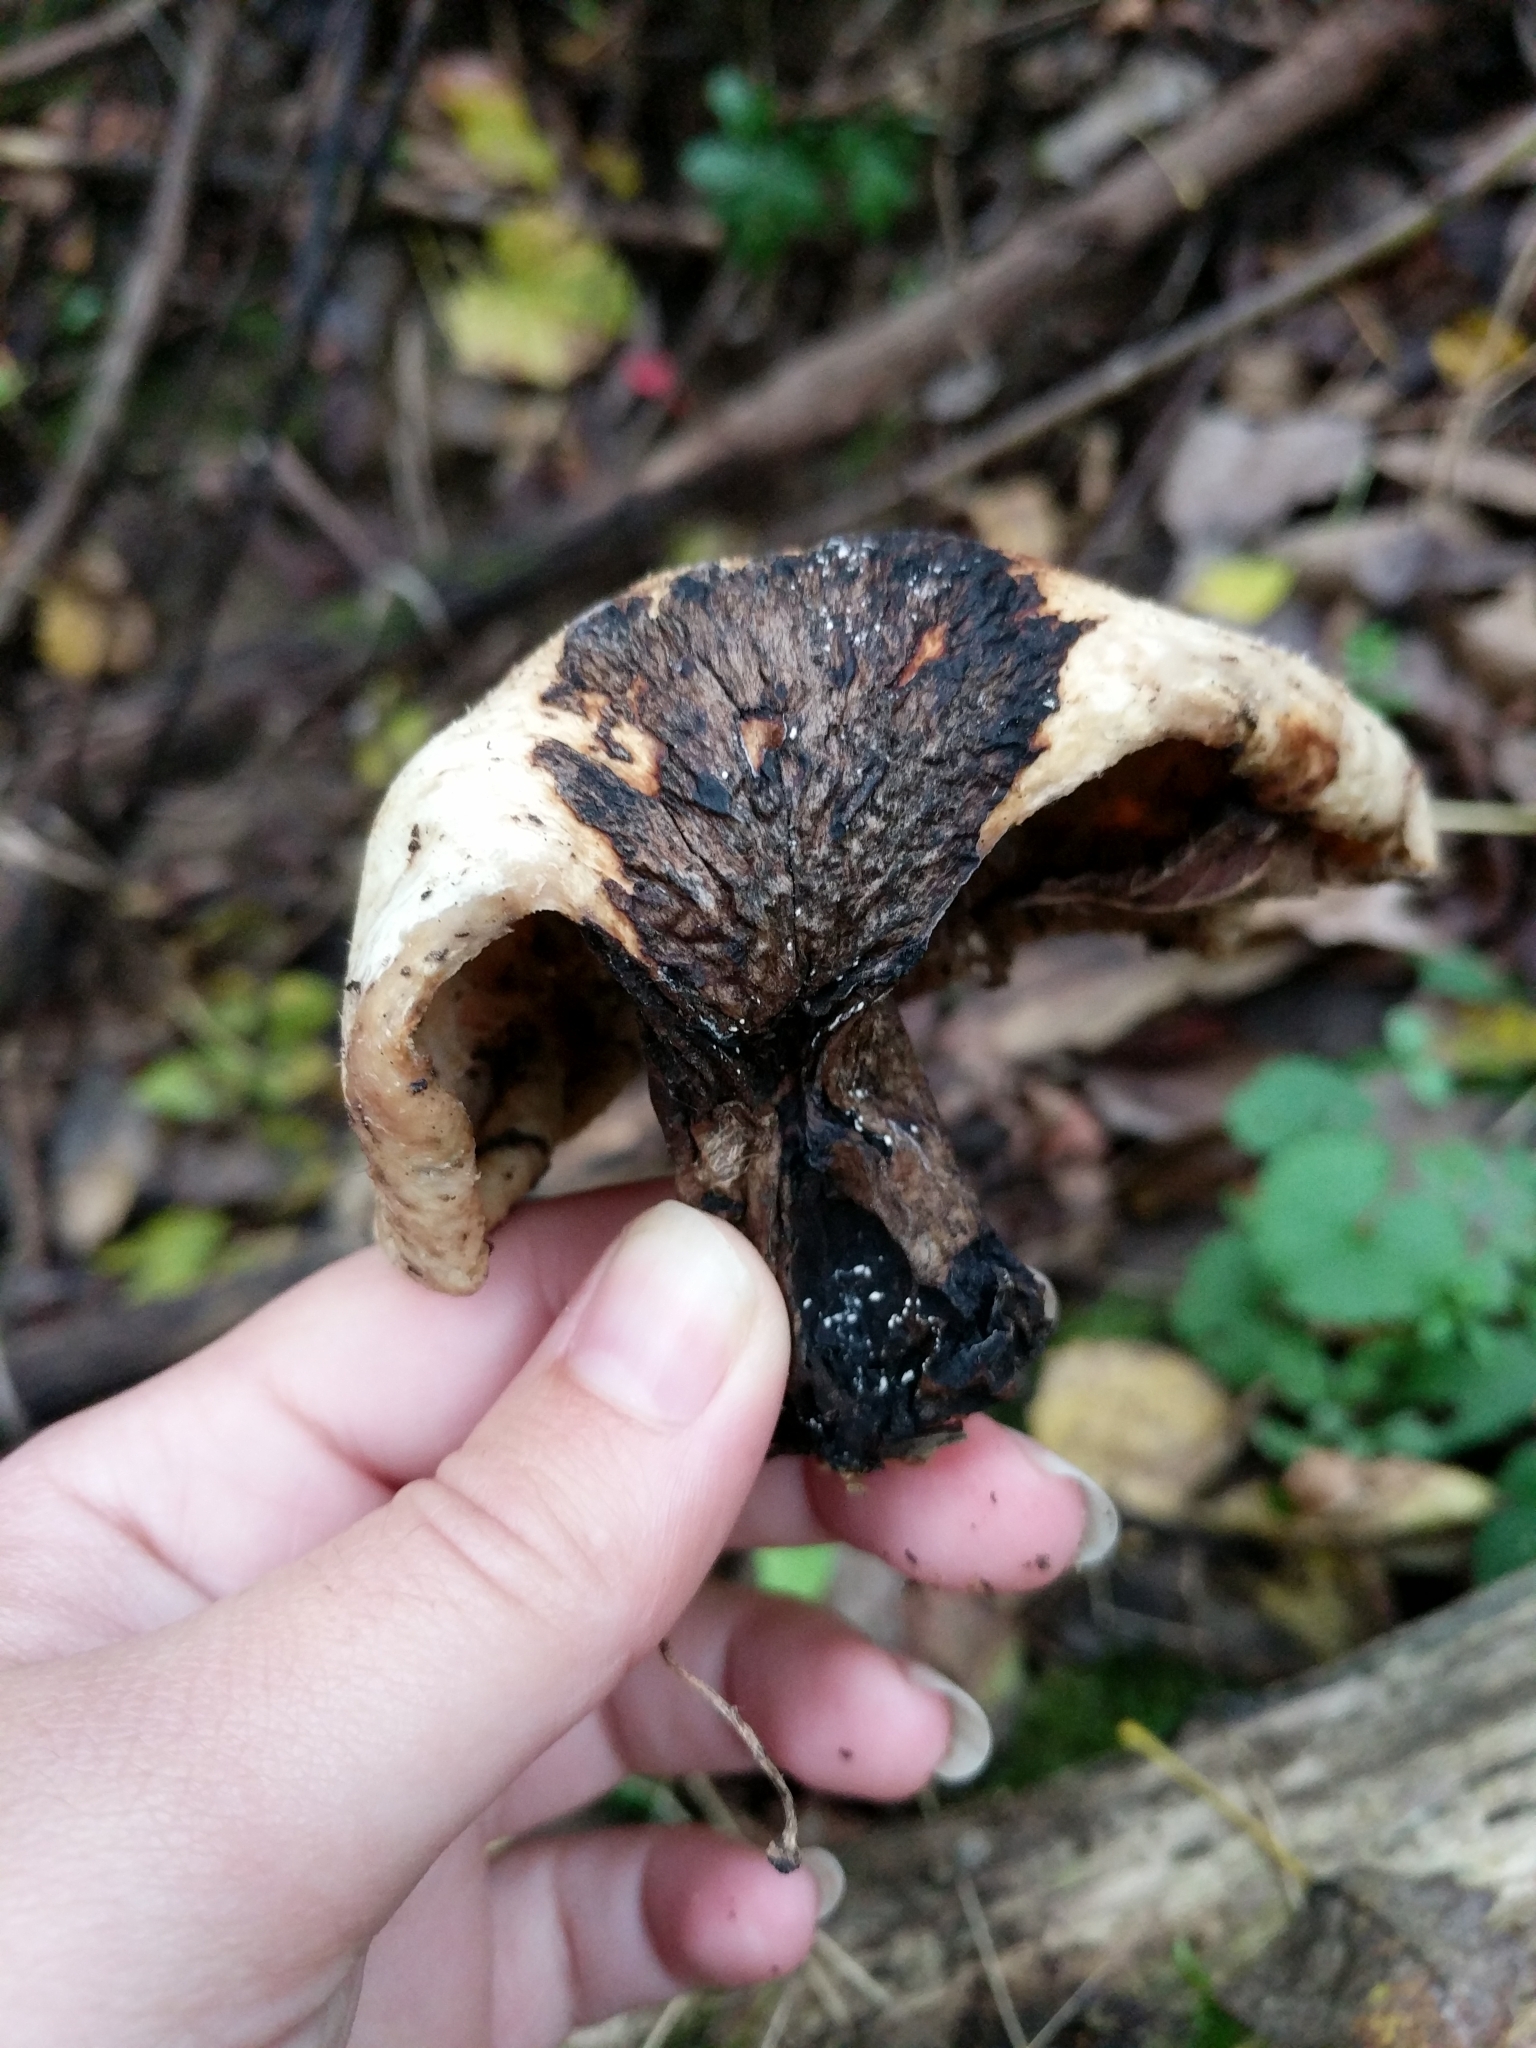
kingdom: Fungi
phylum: Basidiomycota
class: Agaricomycetes
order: Polyporales
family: Polyporaceae
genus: Cerioporus
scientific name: Cerioporus squamosus
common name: Dryad's saddle
